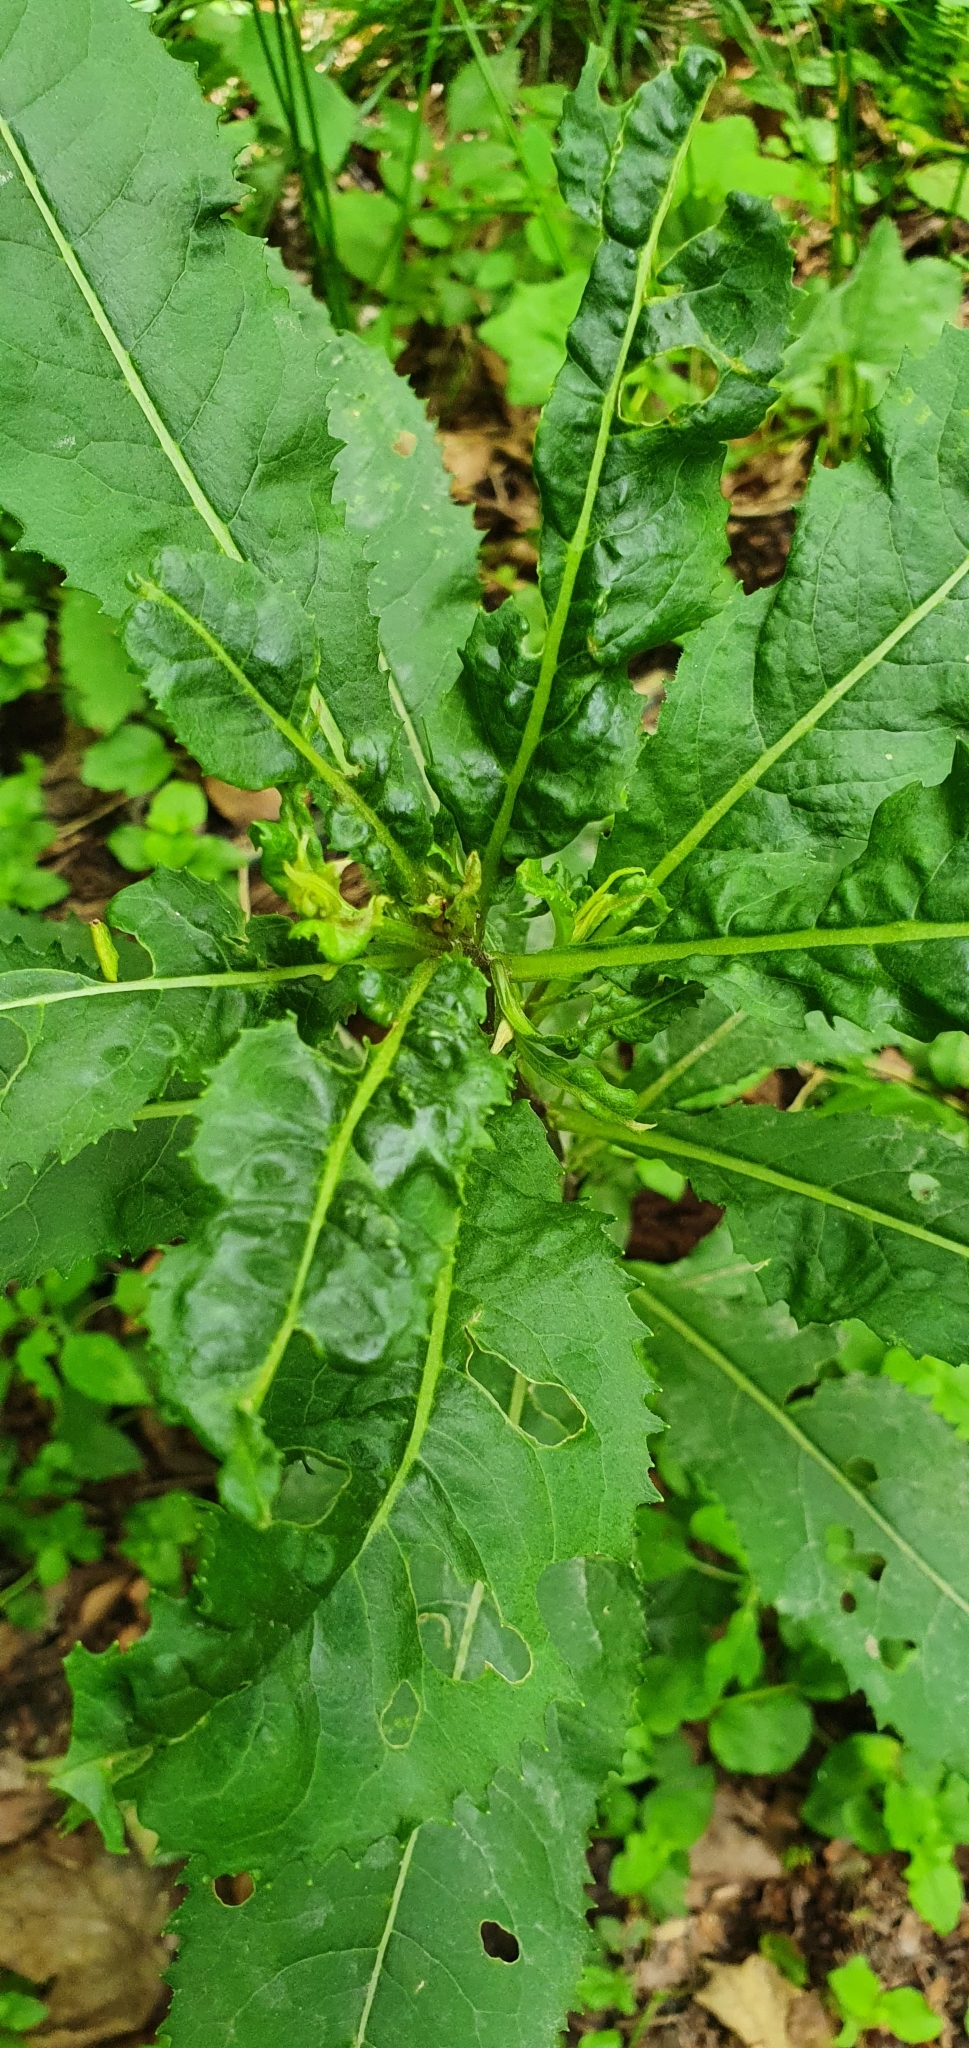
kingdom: Plantae
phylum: Tracheophyta
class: Magnoliopsida
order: Asterales
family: Asteraceae
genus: Senecio
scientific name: Senecio ovatus
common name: Wood ragwort
